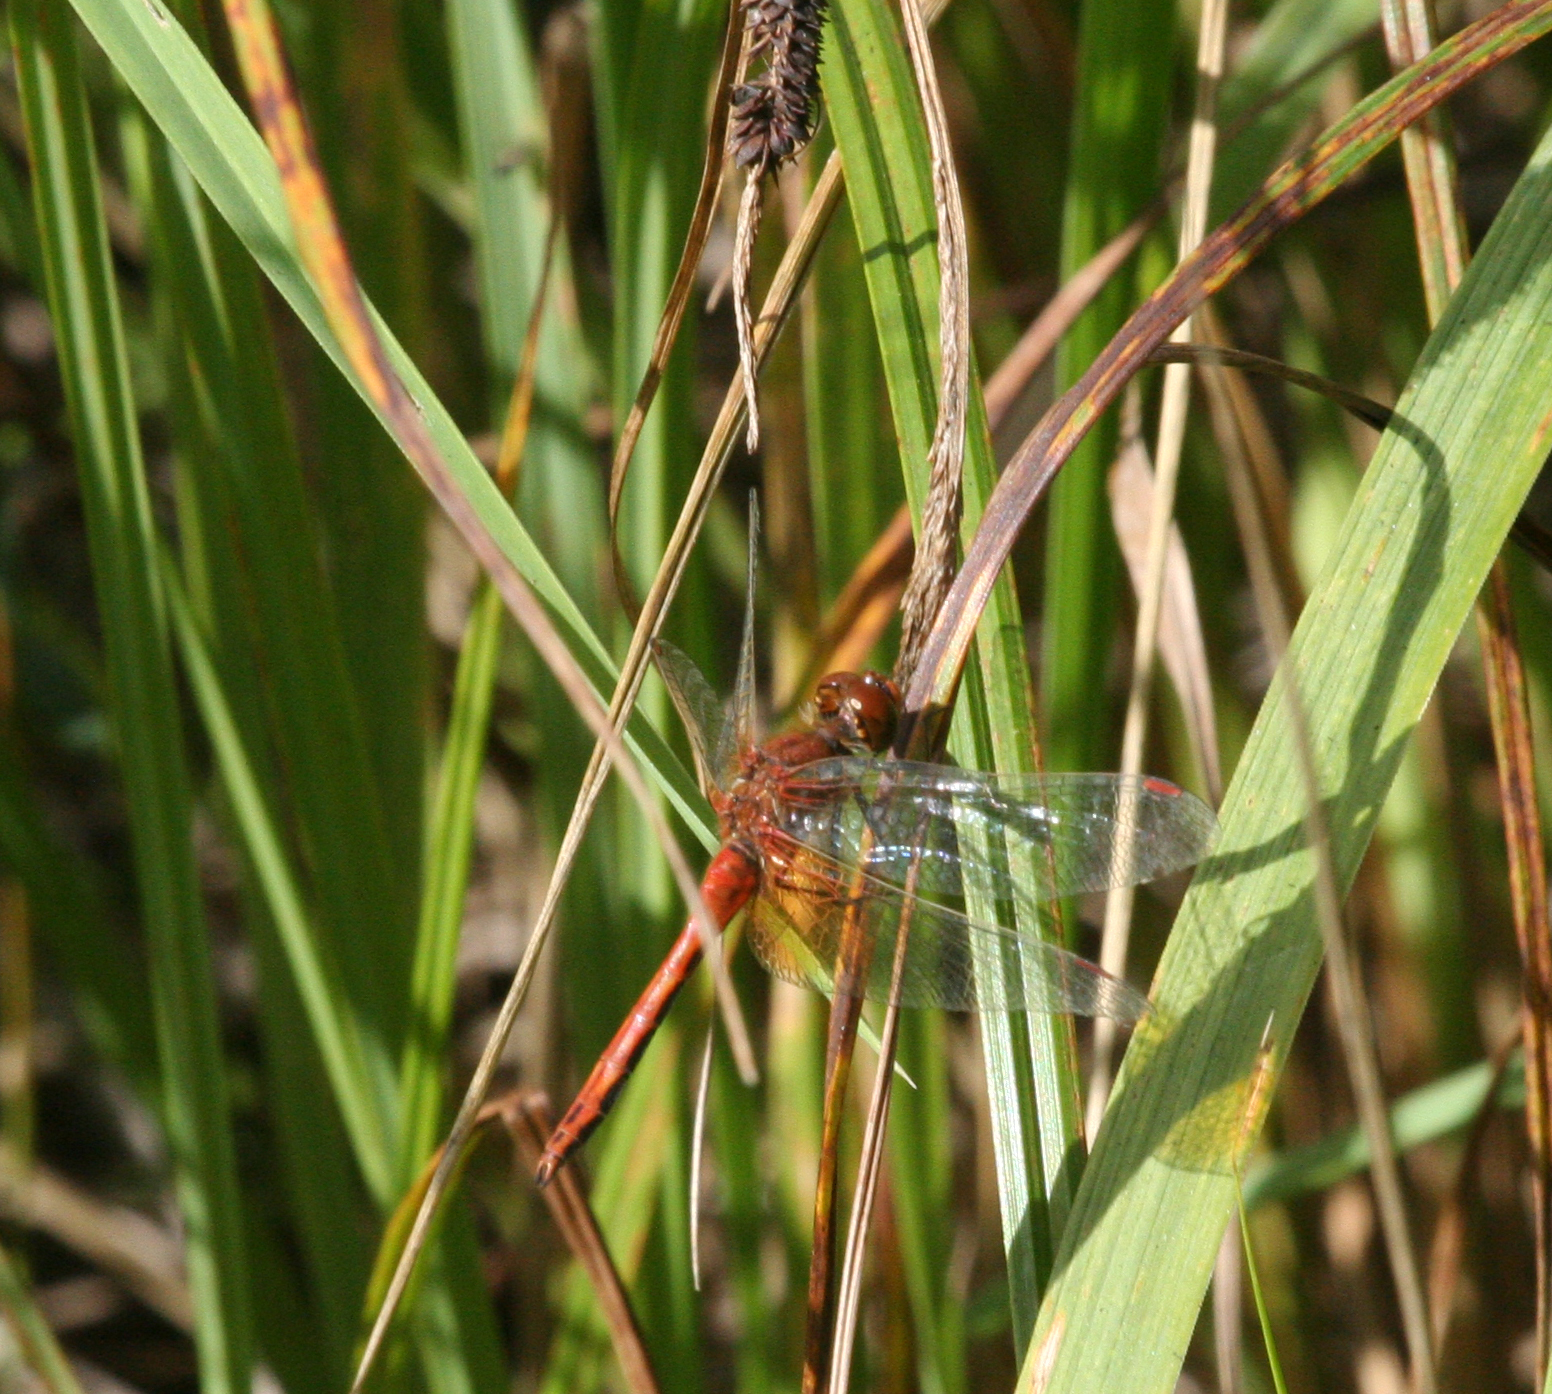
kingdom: Animalia
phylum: Arthropoda
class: Insecta
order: Odonata
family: Libellulidae
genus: Sympetrum
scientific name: Sympetrum flaveolum
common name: Yellow-winged darter
